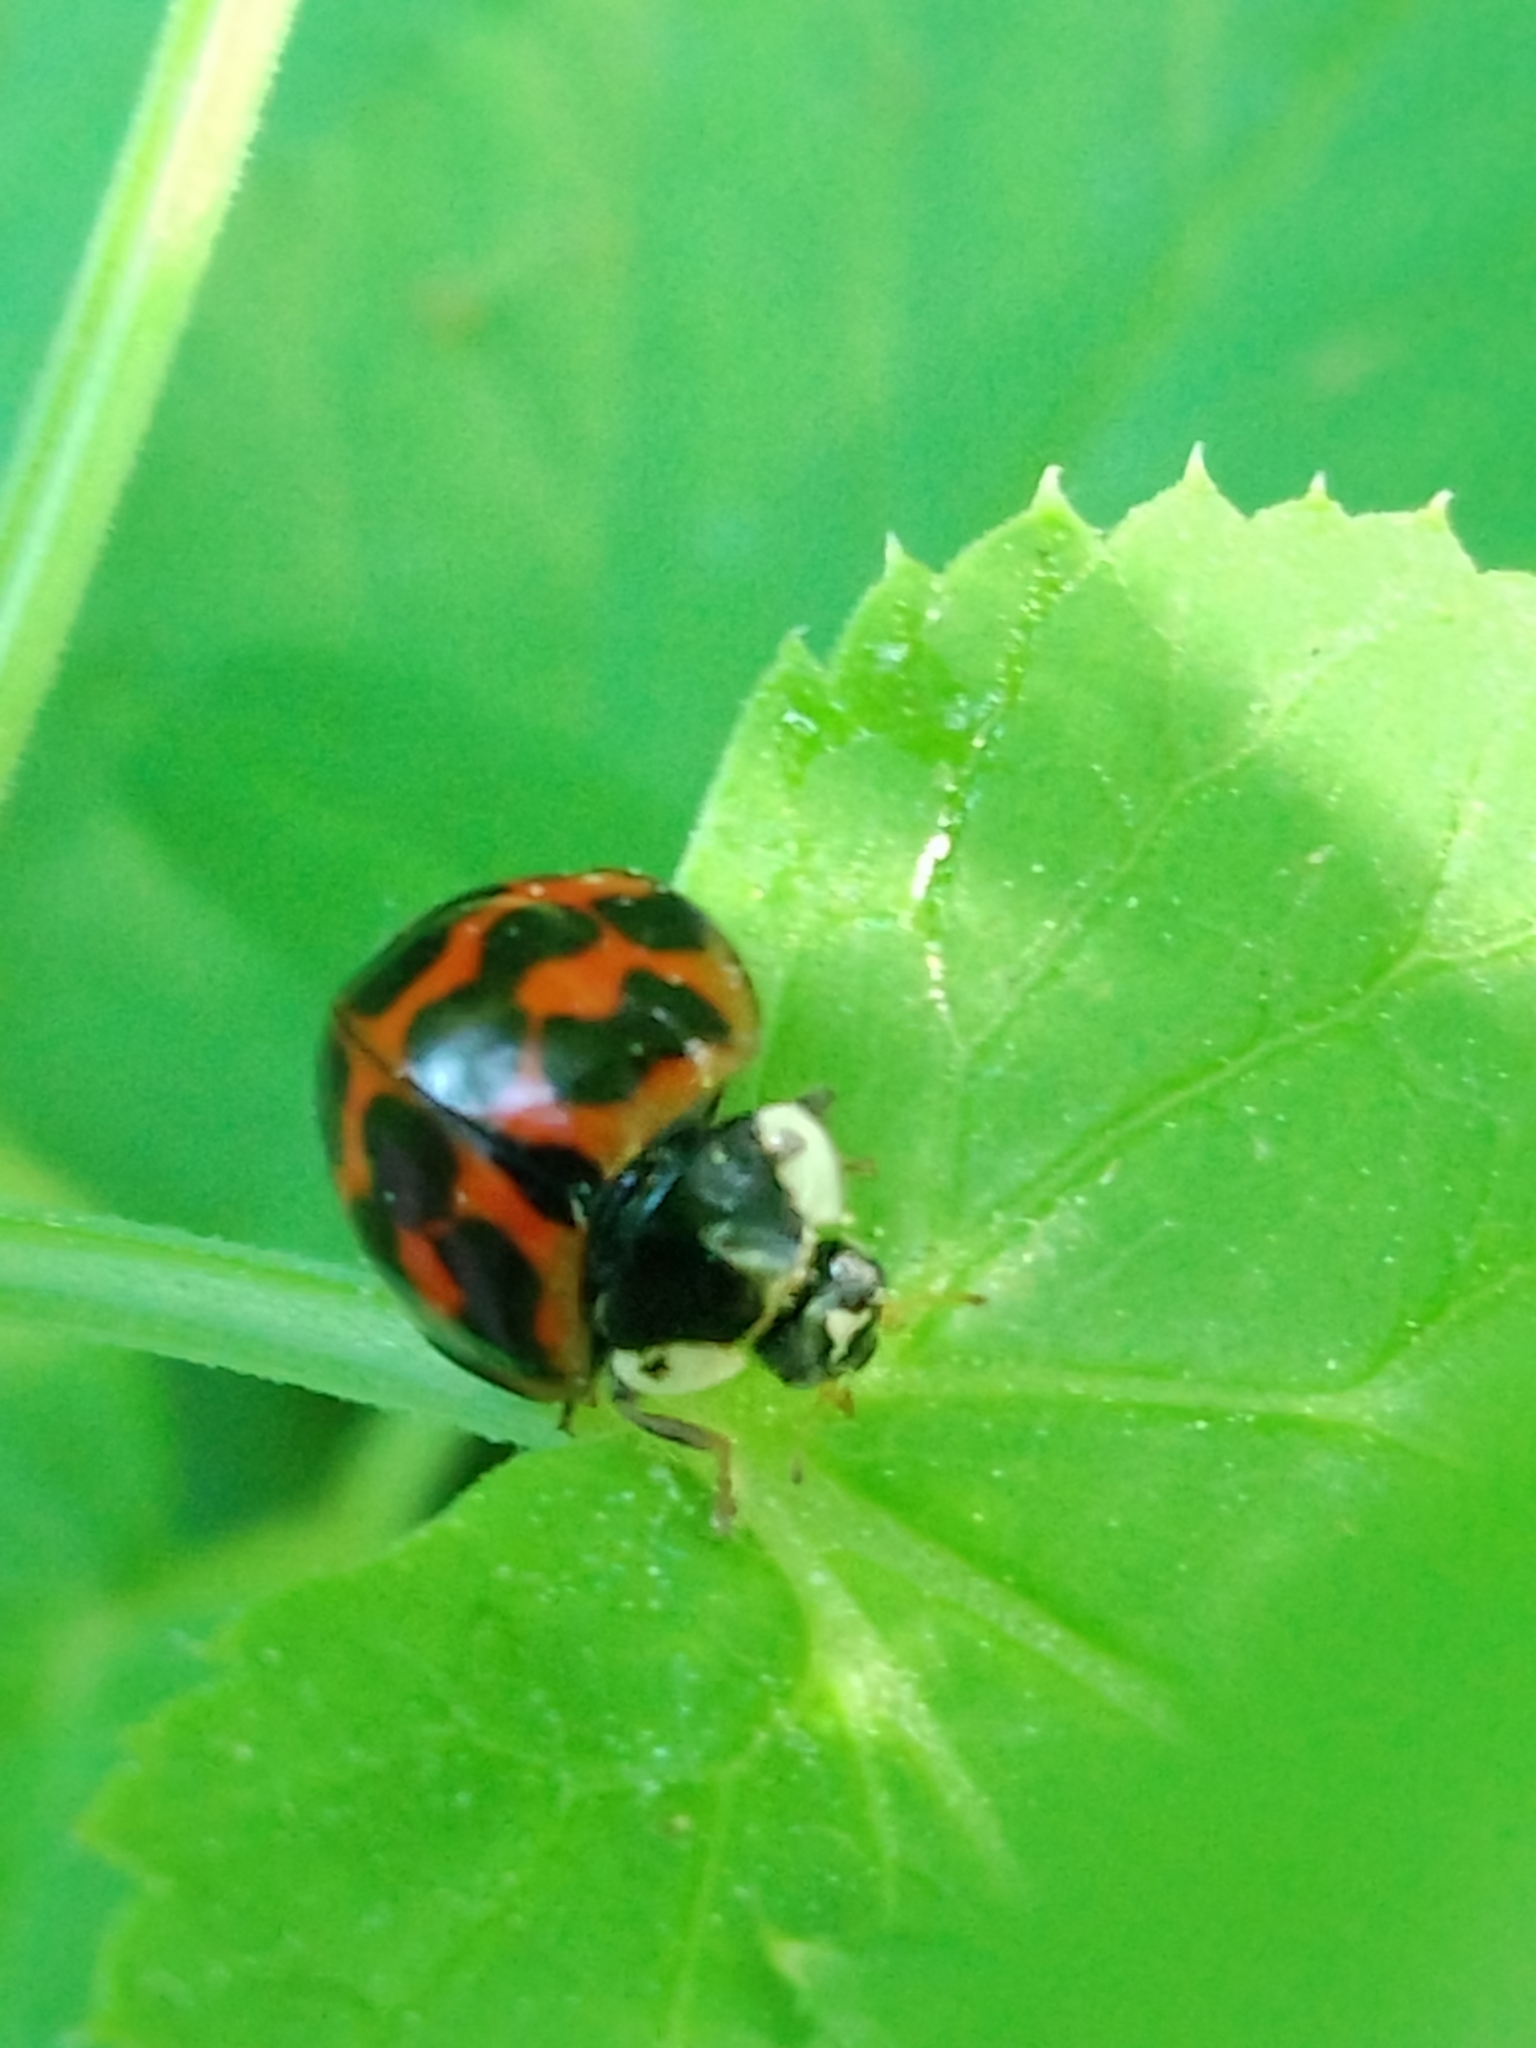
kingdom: Animalia
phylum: Arthropoda
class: Insecta
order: Coleoptera
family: Coccinellidae
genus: Harmonia
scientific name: Harmonia axyridis
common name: Harlequin ladybird
